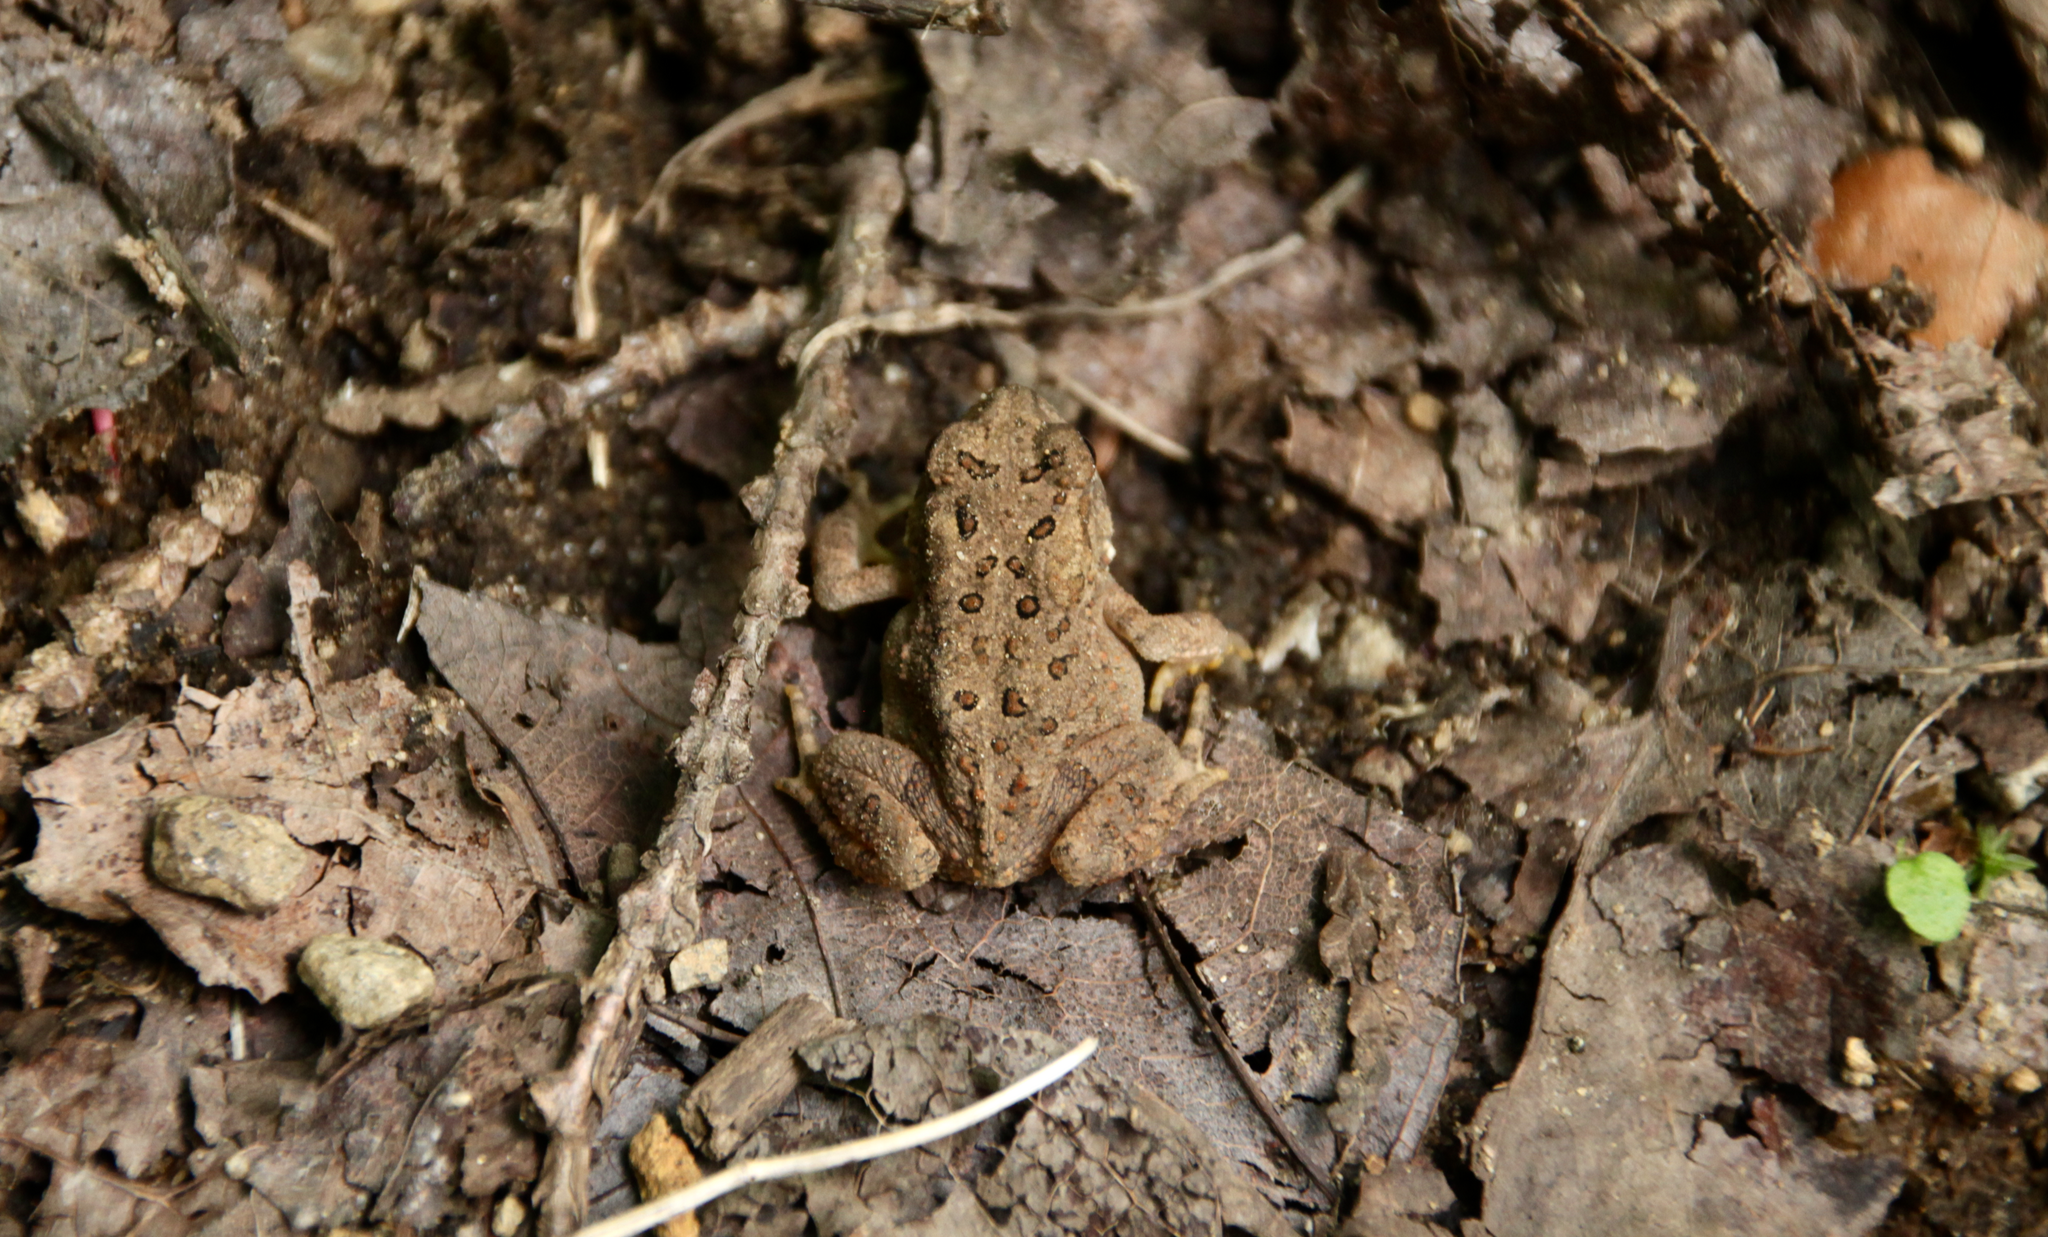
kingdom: Animalia
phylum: Chordata
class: Amphibia
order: Anura
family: Bufonidae
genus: Anaxyrus
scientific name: Anaxyrus americanus
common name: American toad
